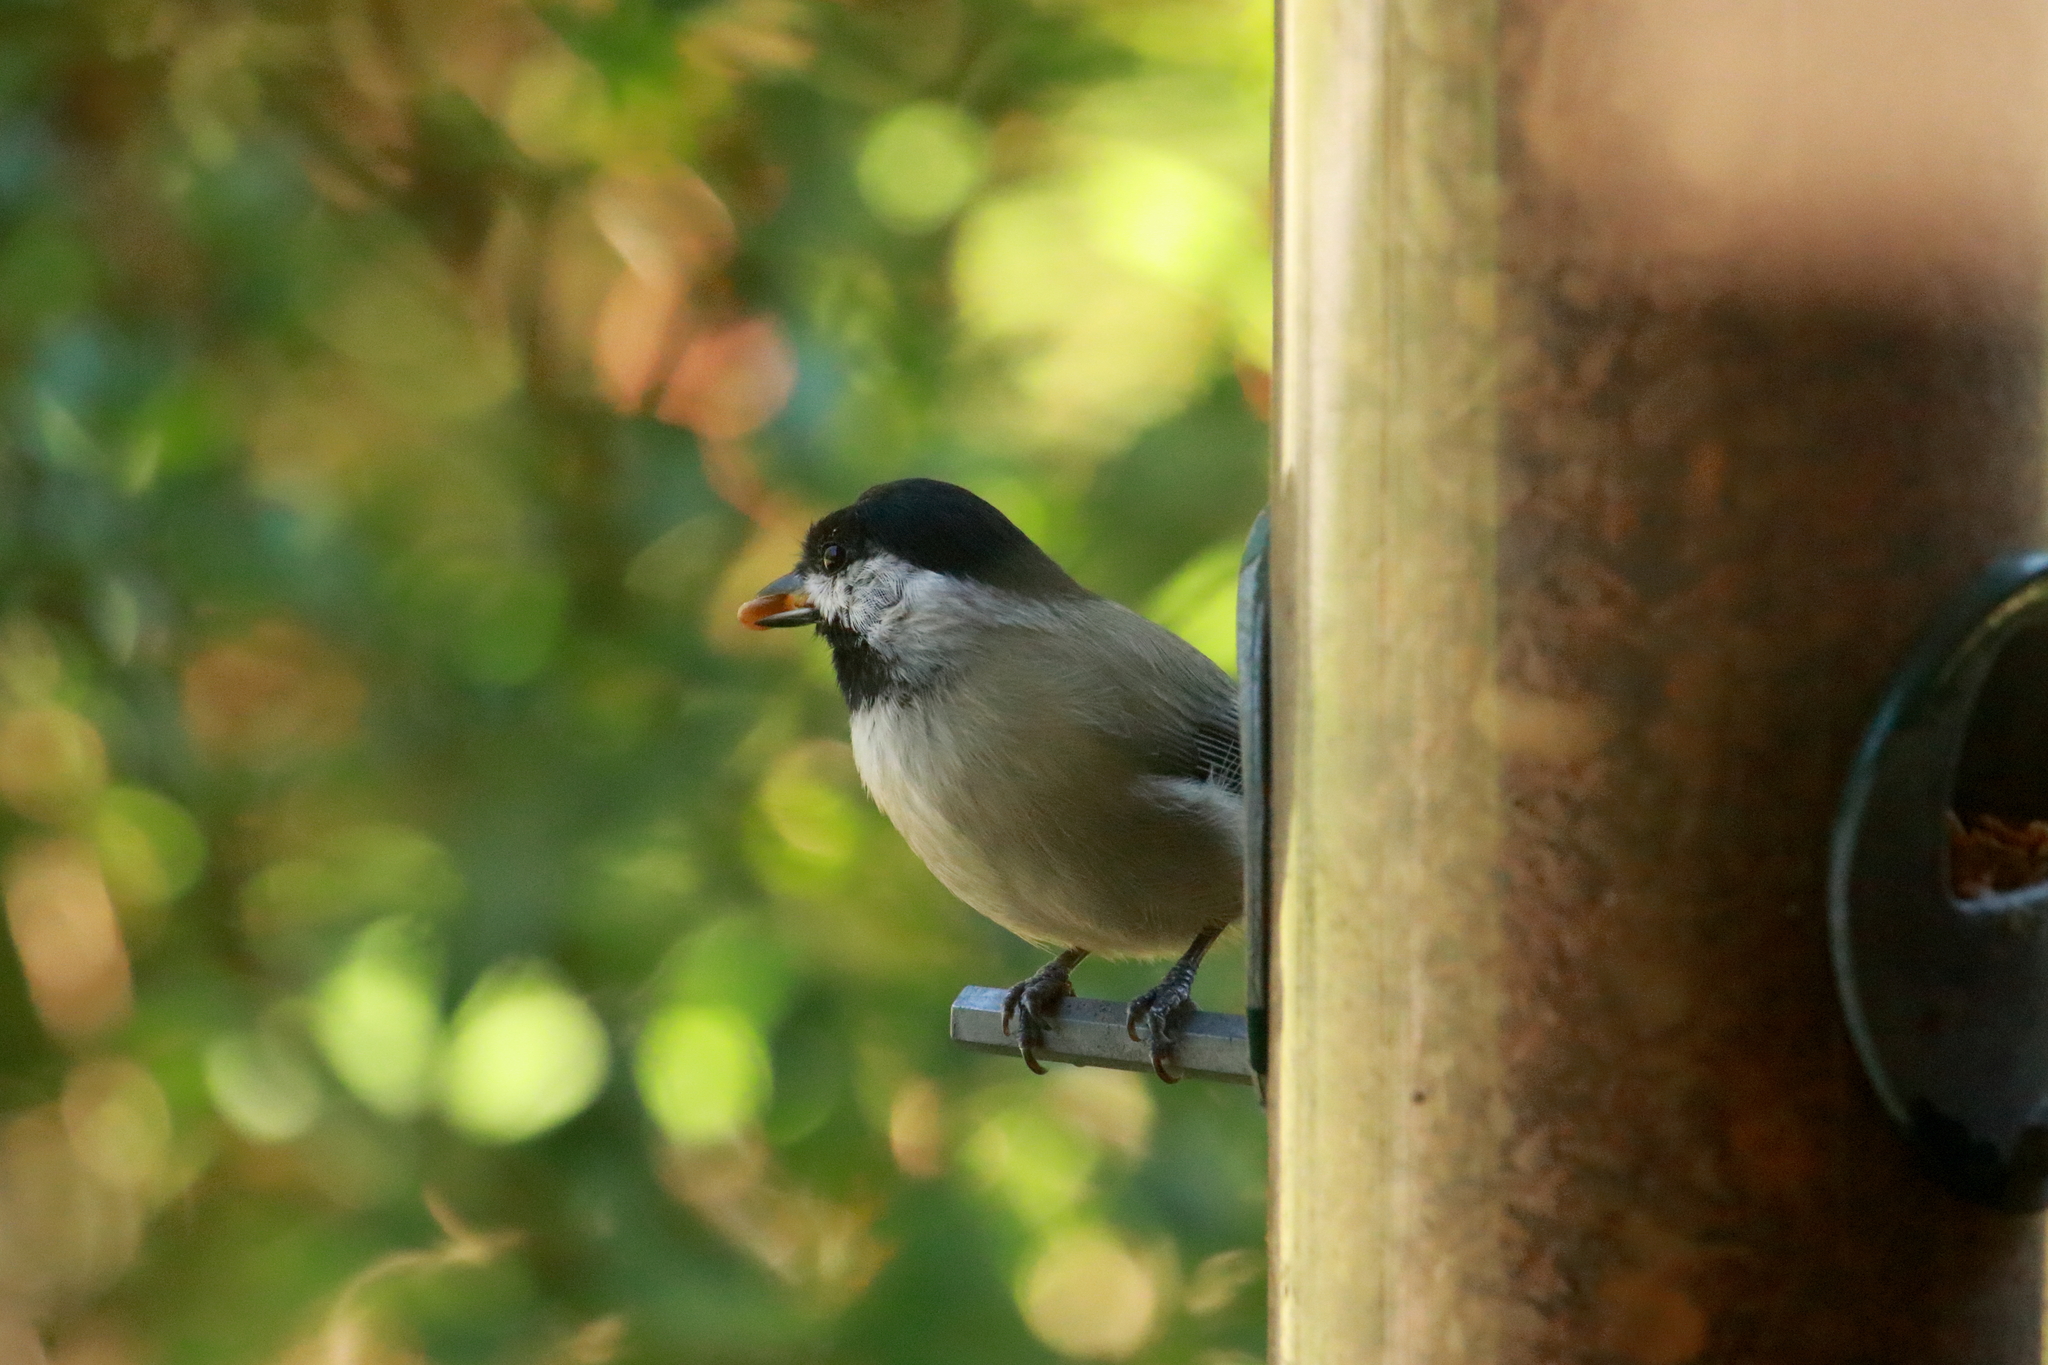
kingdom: Animalia
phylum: Chordata
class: Aves
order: Passeriformes
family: Paridae
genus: Poecile
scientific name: Poecile carolinensis
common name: Carolina chickadee
